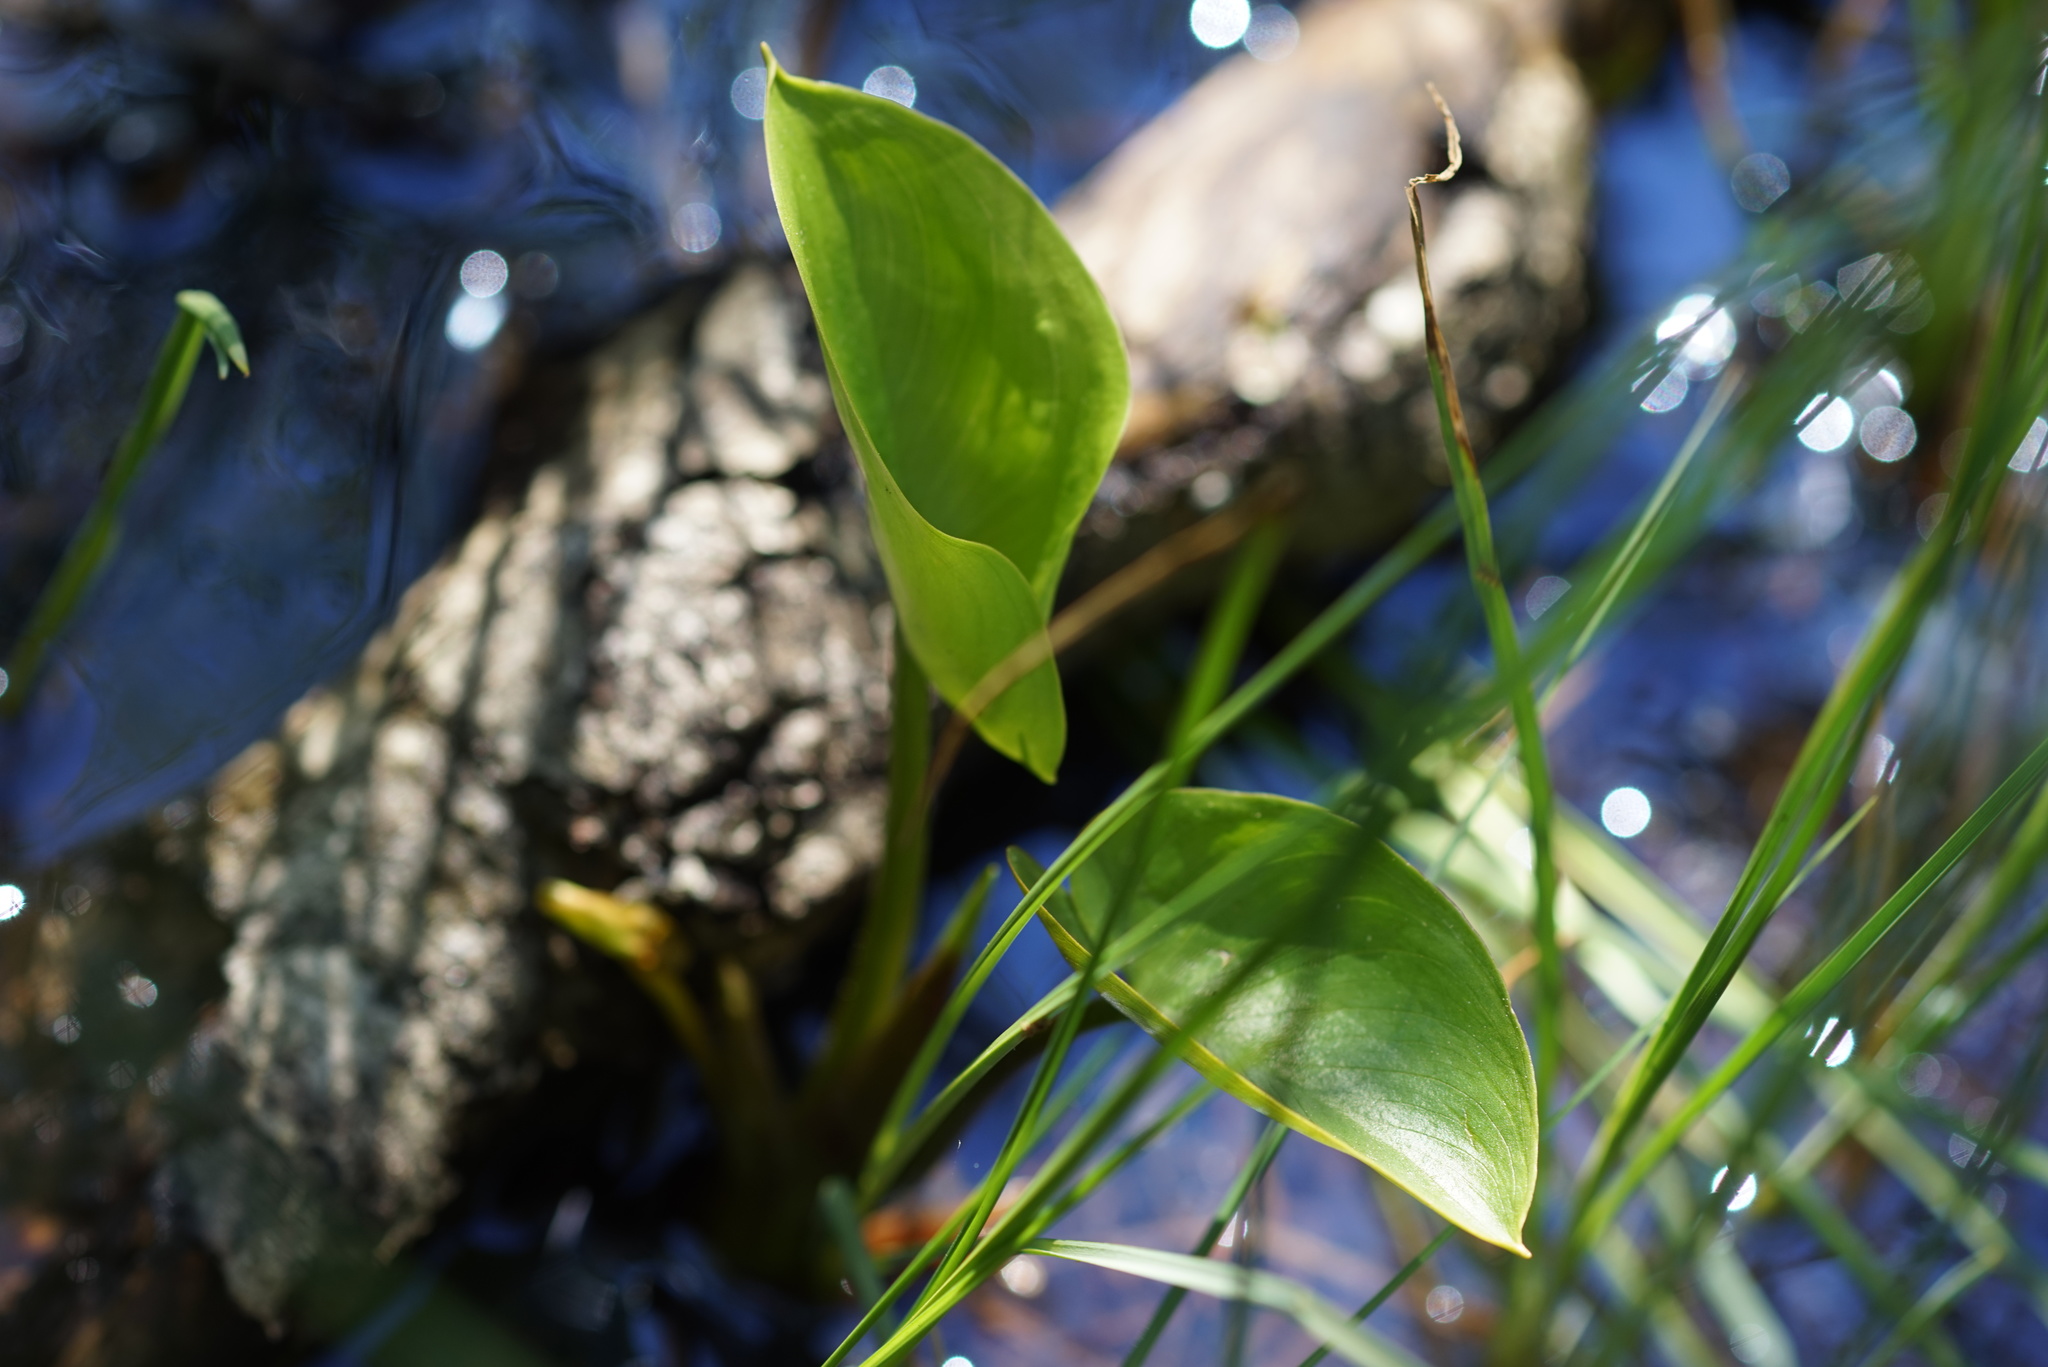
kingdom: Plantae
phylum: Tracheophyta
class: Liliopsida
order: Alismatales
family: Araceae
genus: Calla
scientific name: Calla palustris
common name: Bog arum
